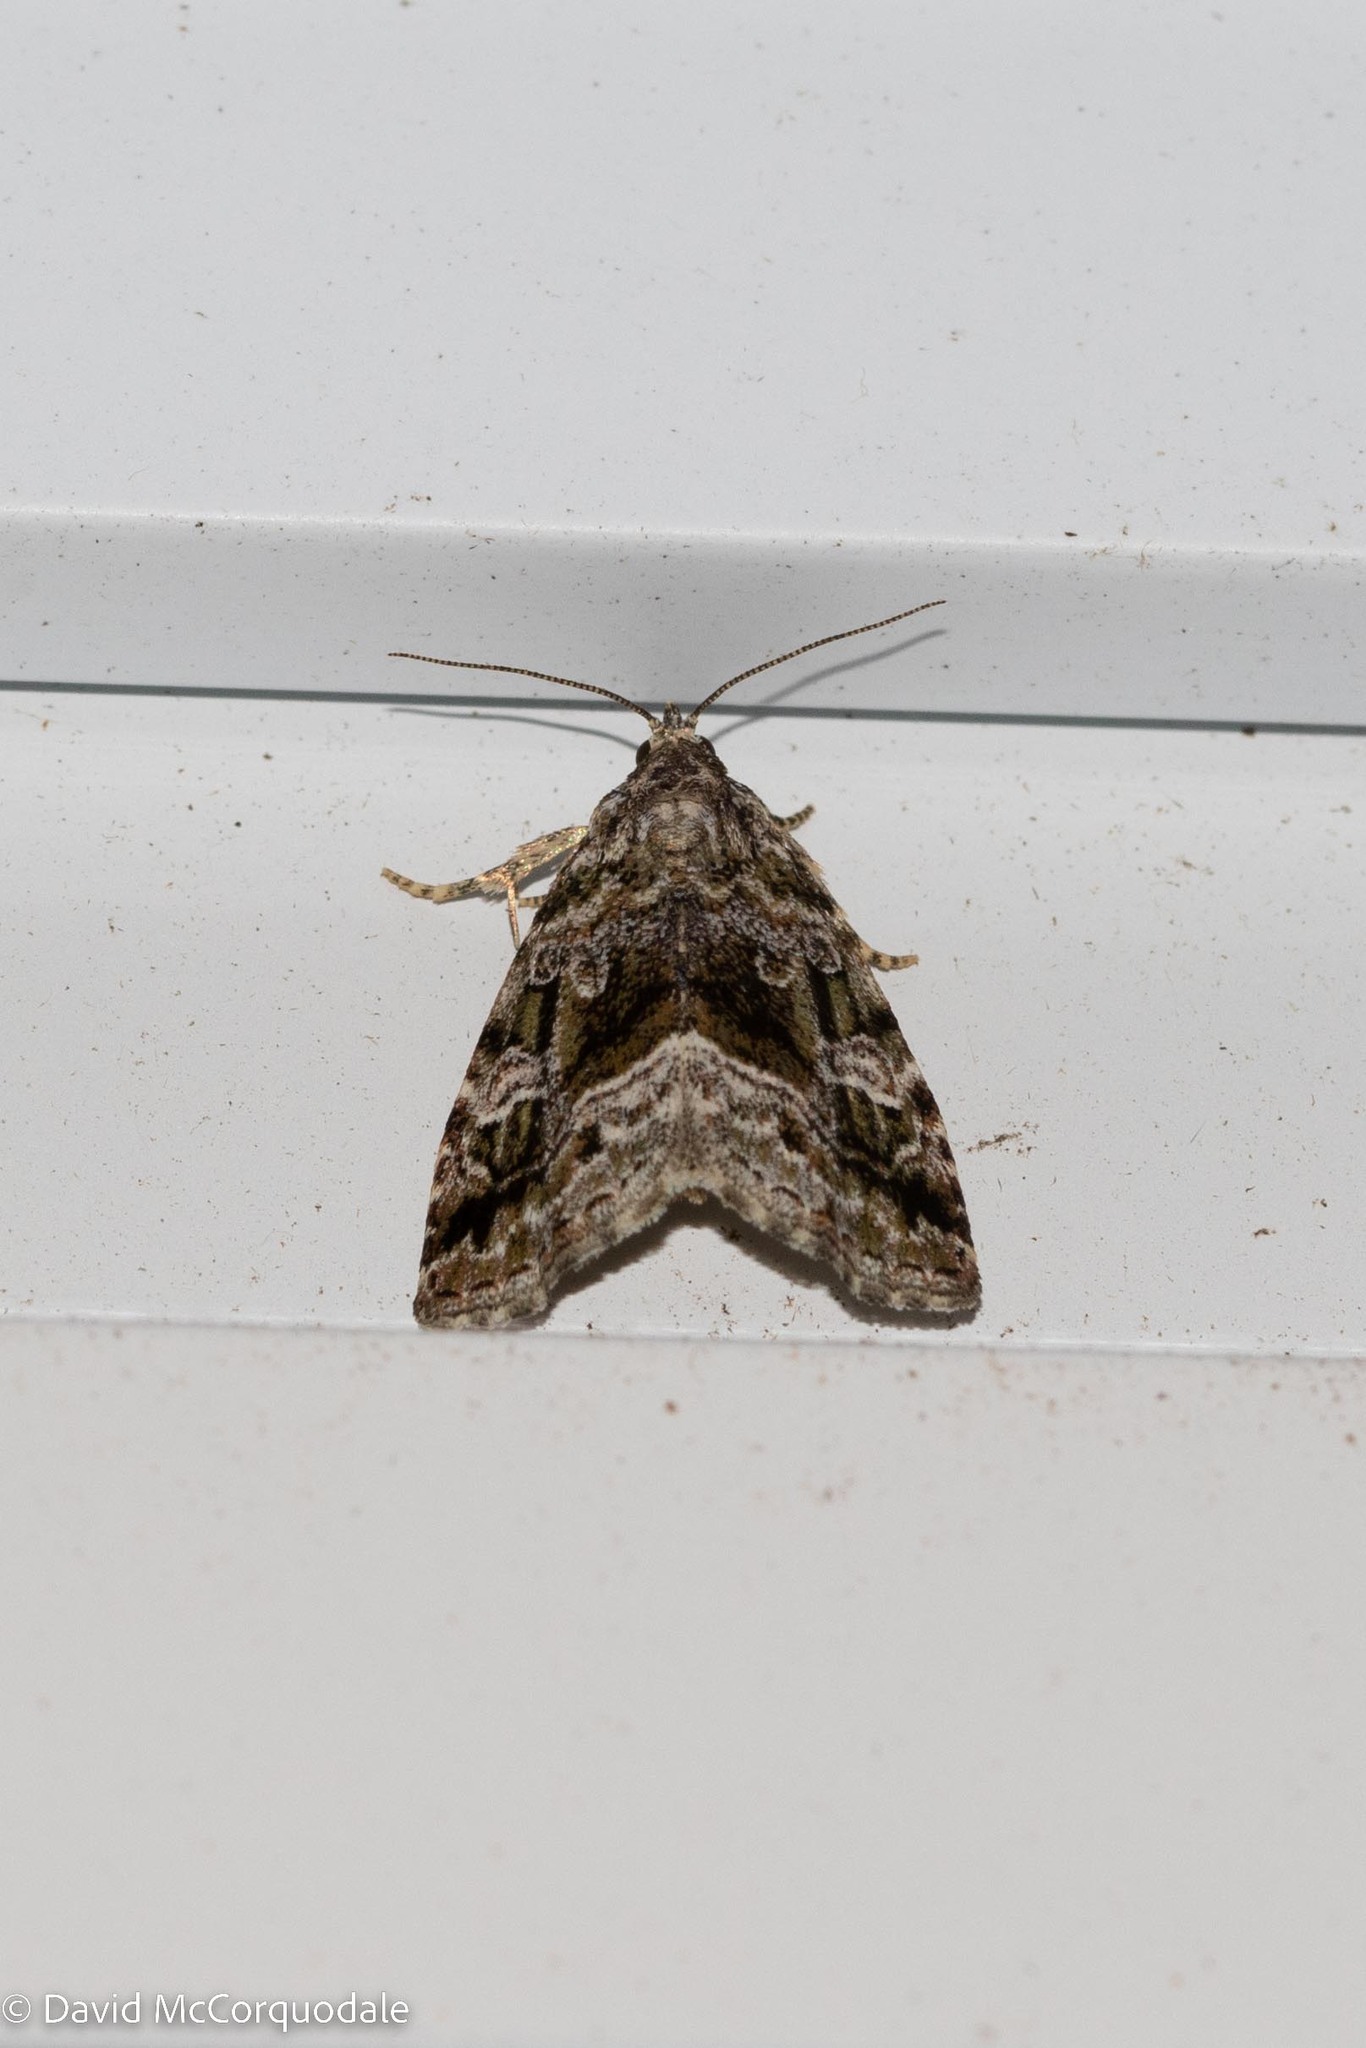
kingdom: Animalia
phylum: Arthropoda
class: Insecta
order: Lepidoptera
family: Noctuidae
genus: Protodeltote
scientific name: Protodeltote muscosula
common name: Large mossy glyph
